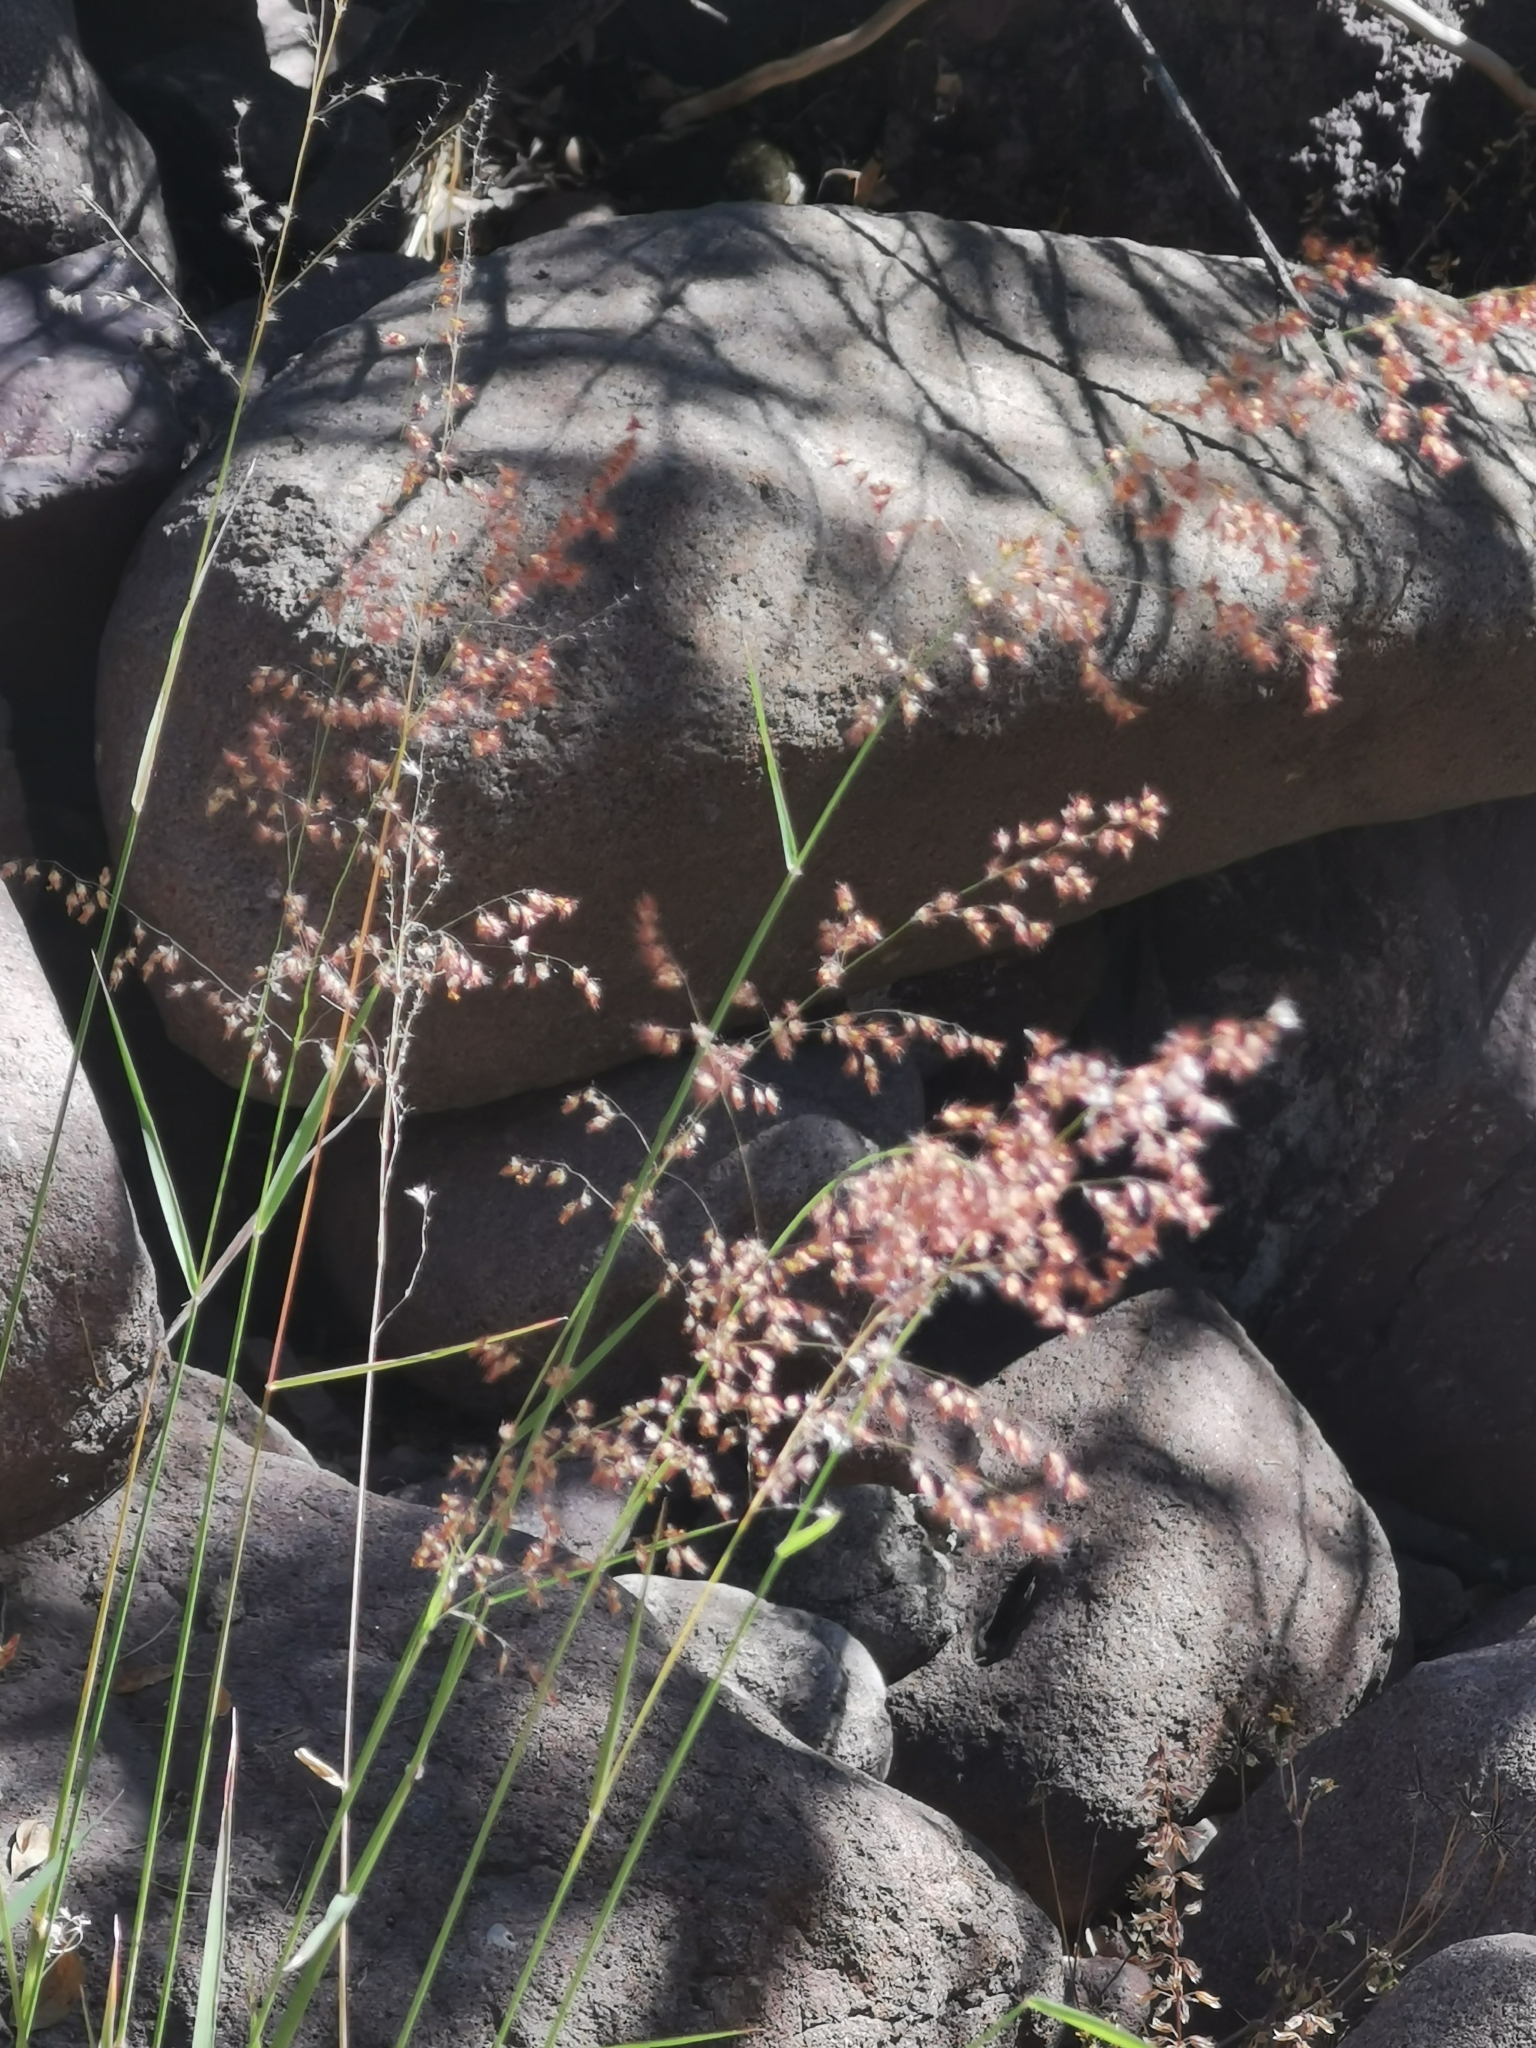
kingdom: Plantae
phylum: Tracheophyta
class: Liliopsida
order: Poales
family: Poaceae
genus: Melinis
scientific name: Melinis repens
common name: Rose natal grass
